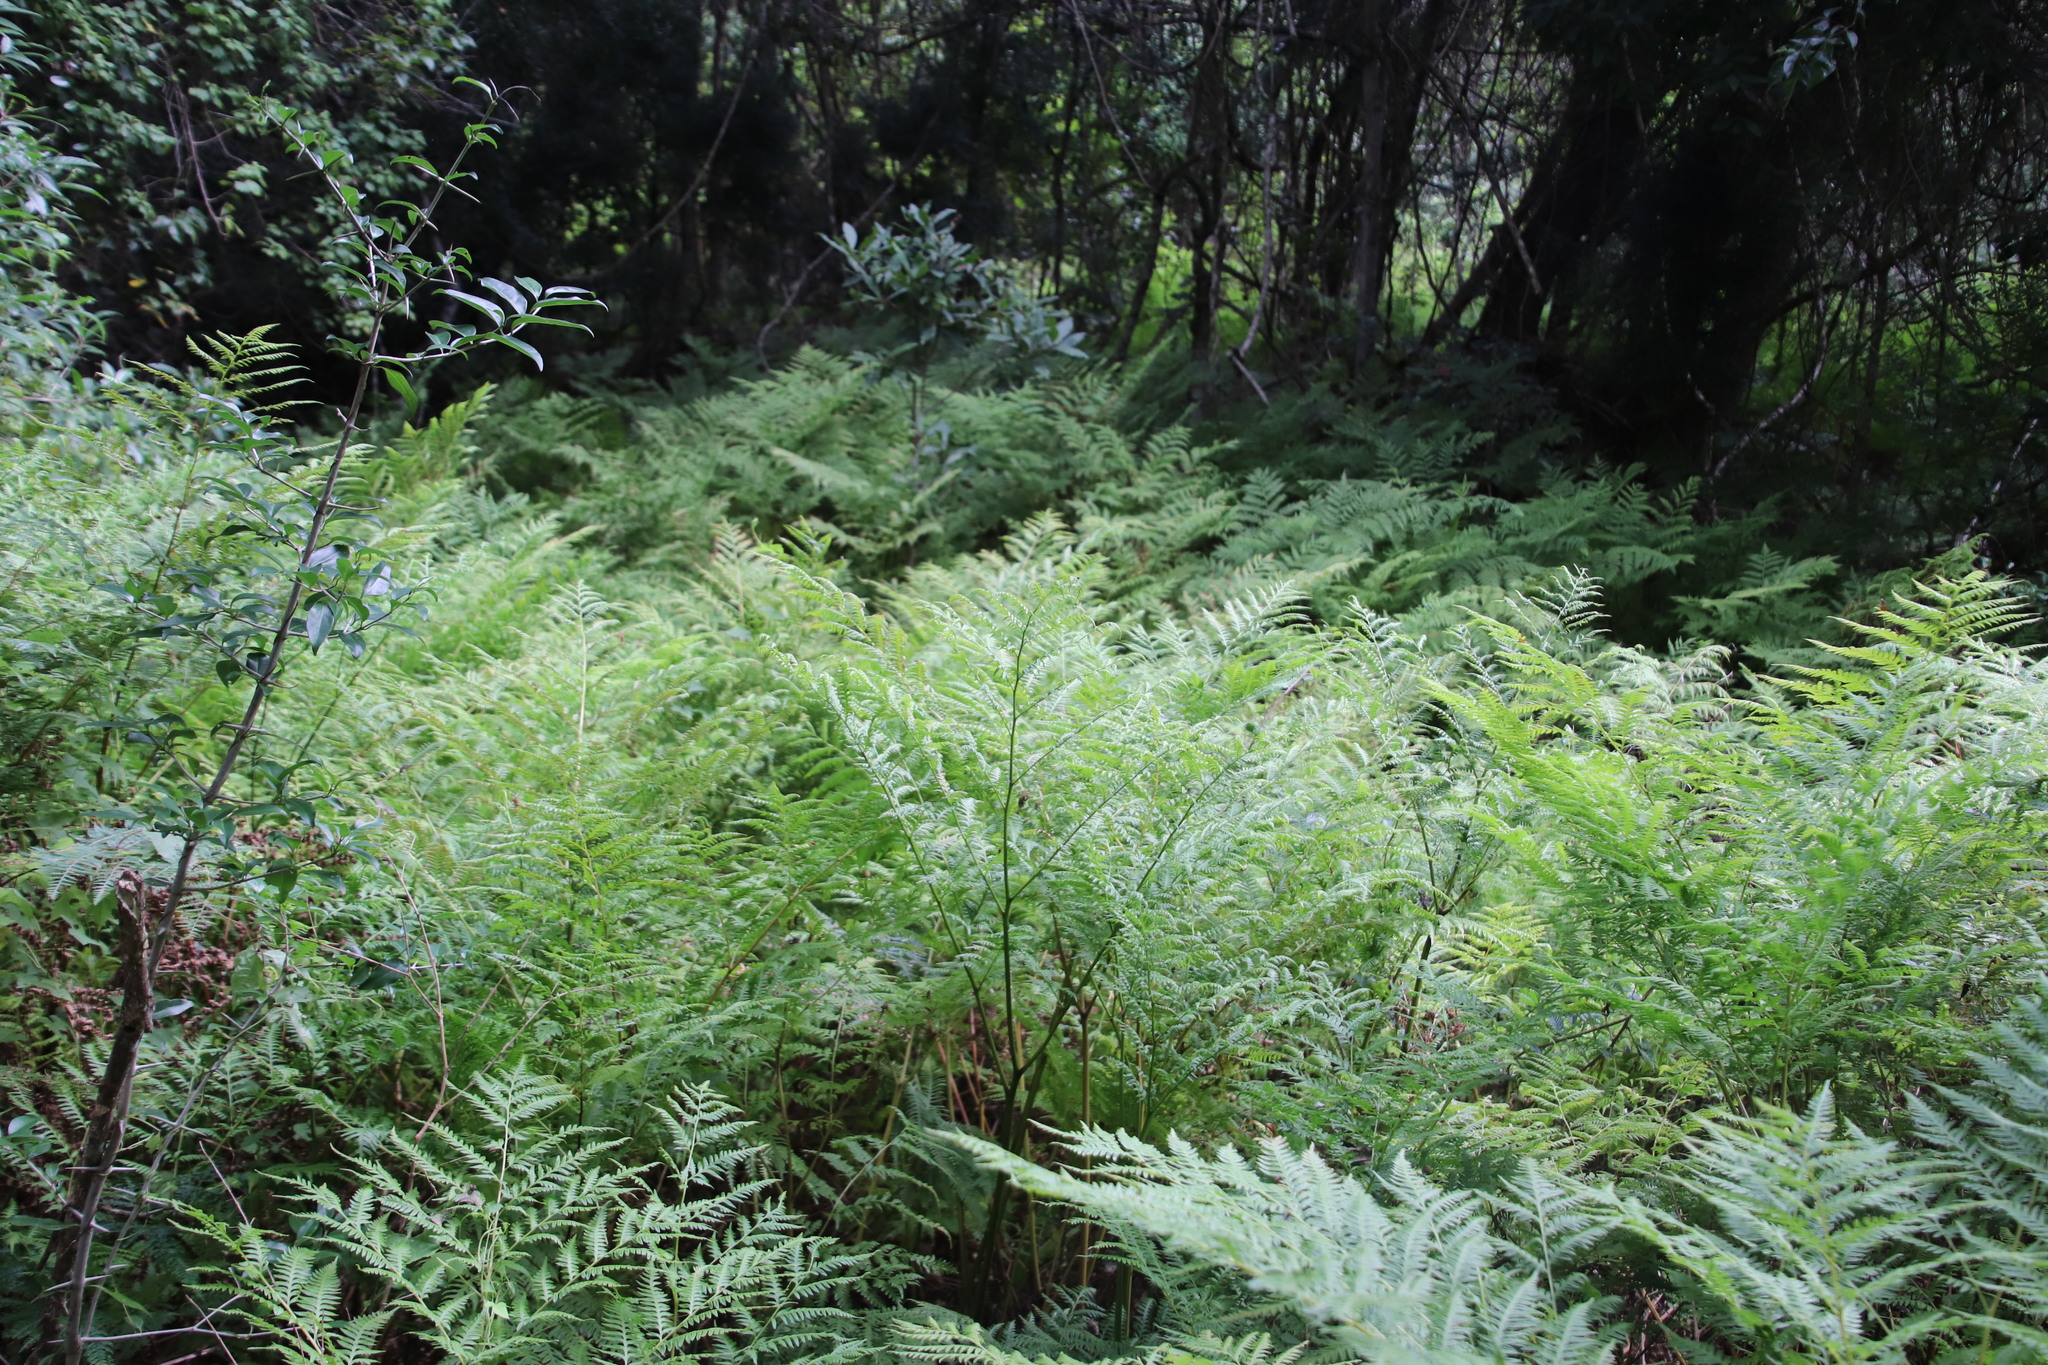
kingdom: Plantae
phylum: Tracheophyta
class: Polypodiopsida
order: Polypodiales
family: Dryopteridaceae
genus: Rumohra
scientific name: Rumohra adiantiformis
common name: Leather fern
